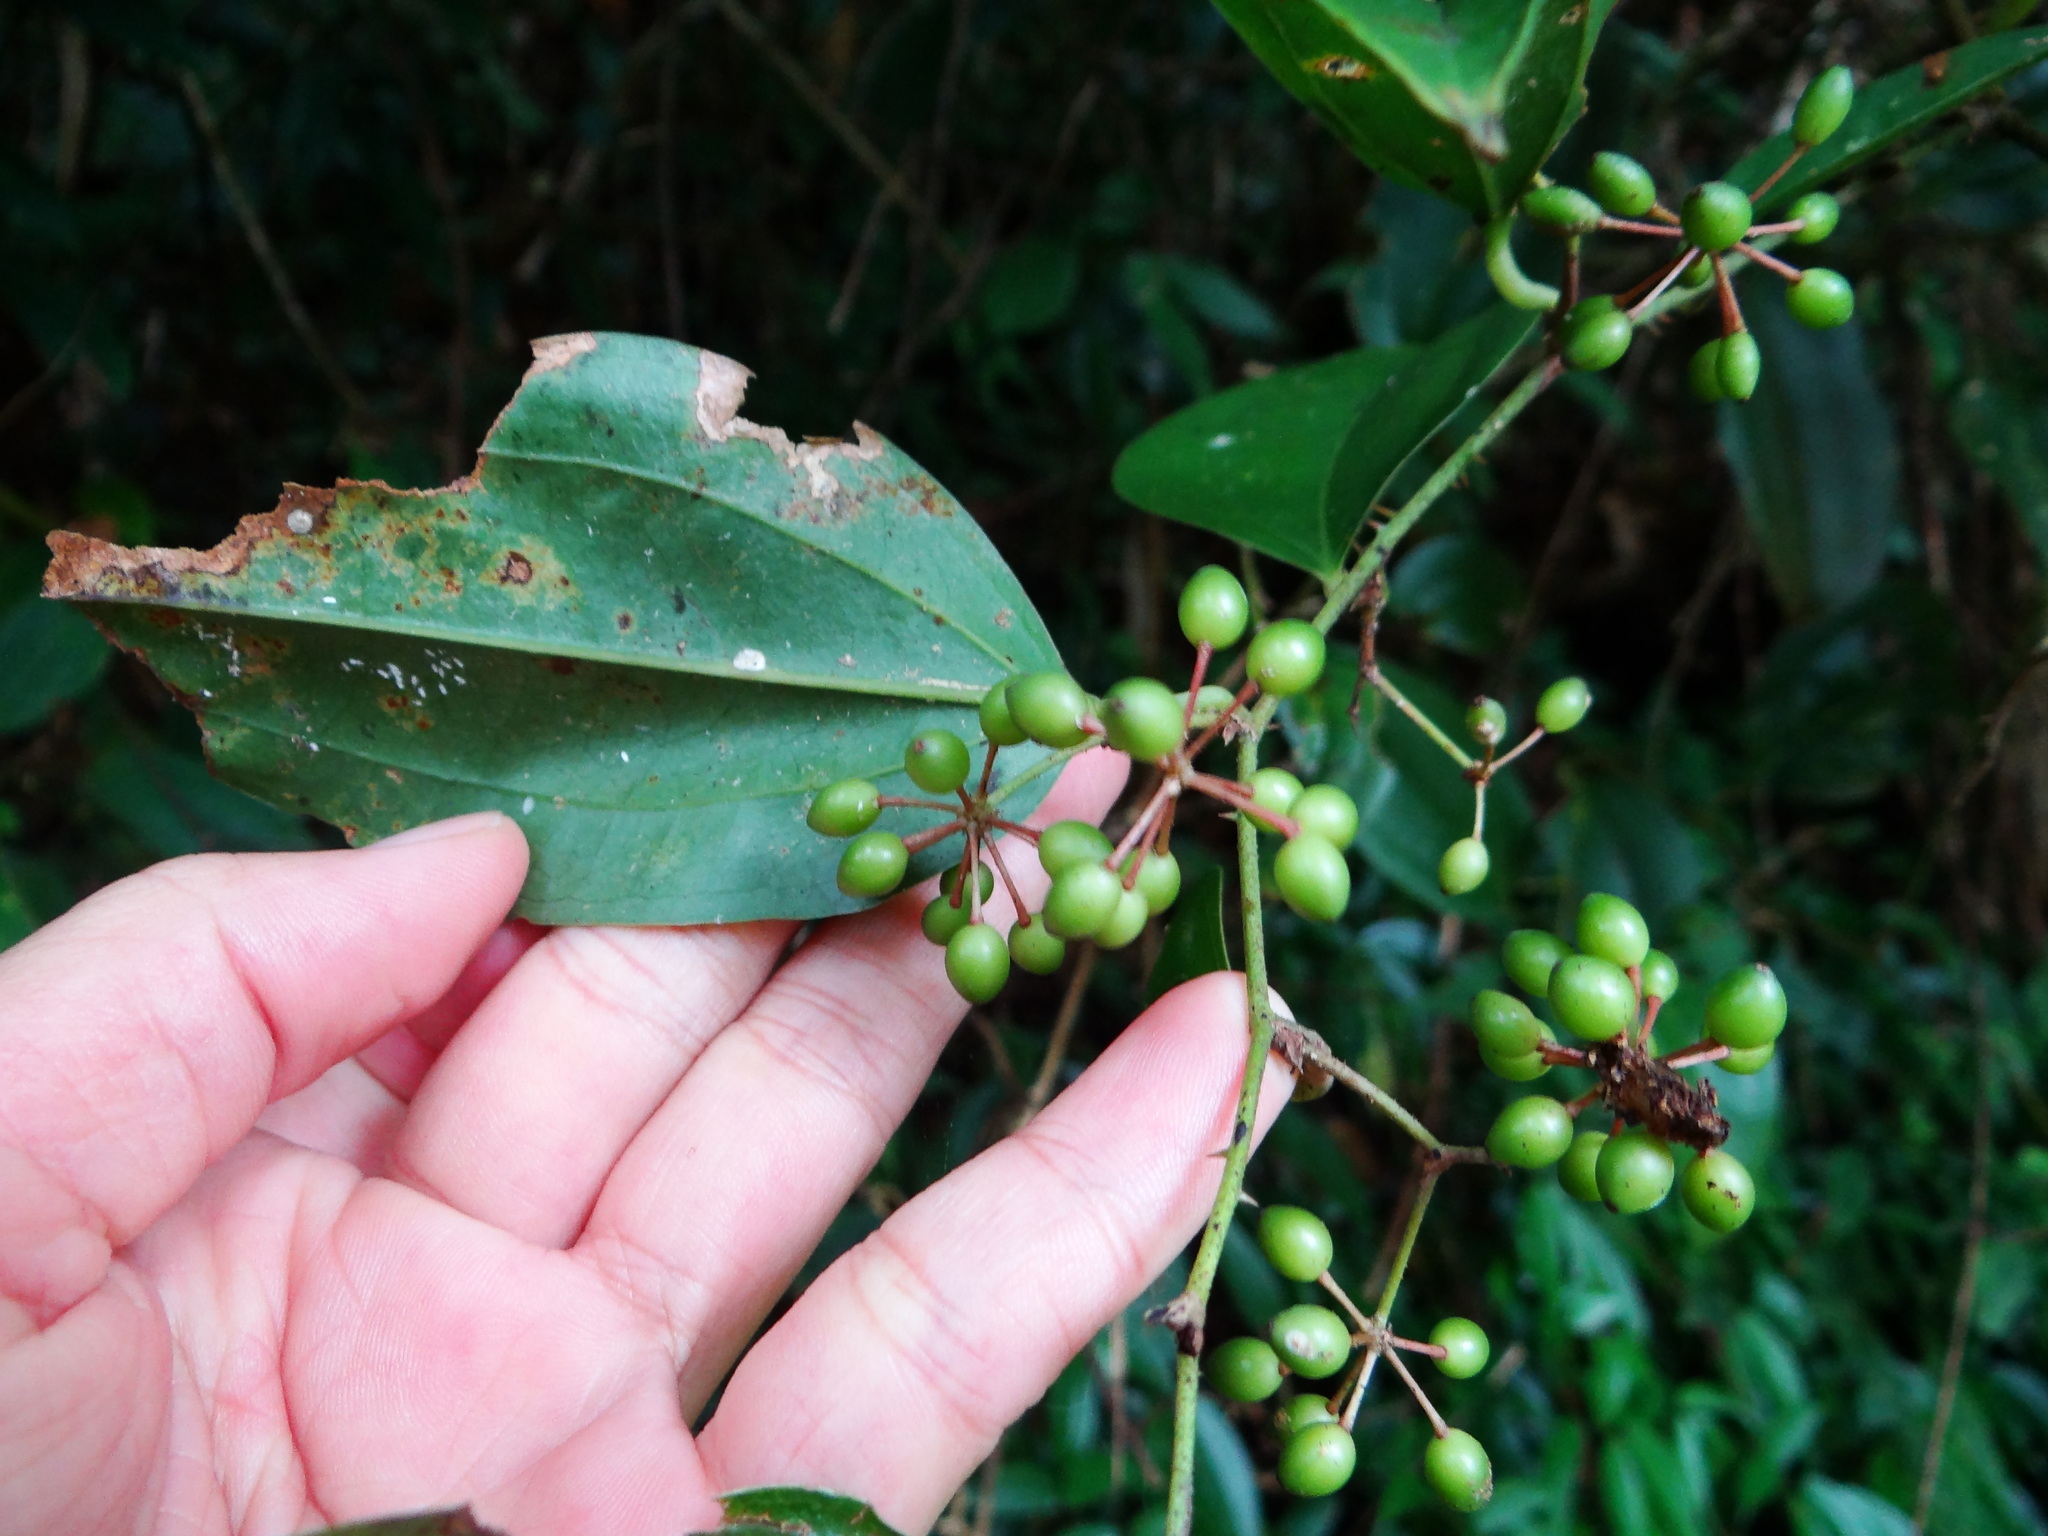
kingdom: Plantae
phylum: Tracheophyta
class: Liliopsida
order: Liliales
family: Smilacaceae
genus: Smilax
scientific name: Smilax aspericaulis
